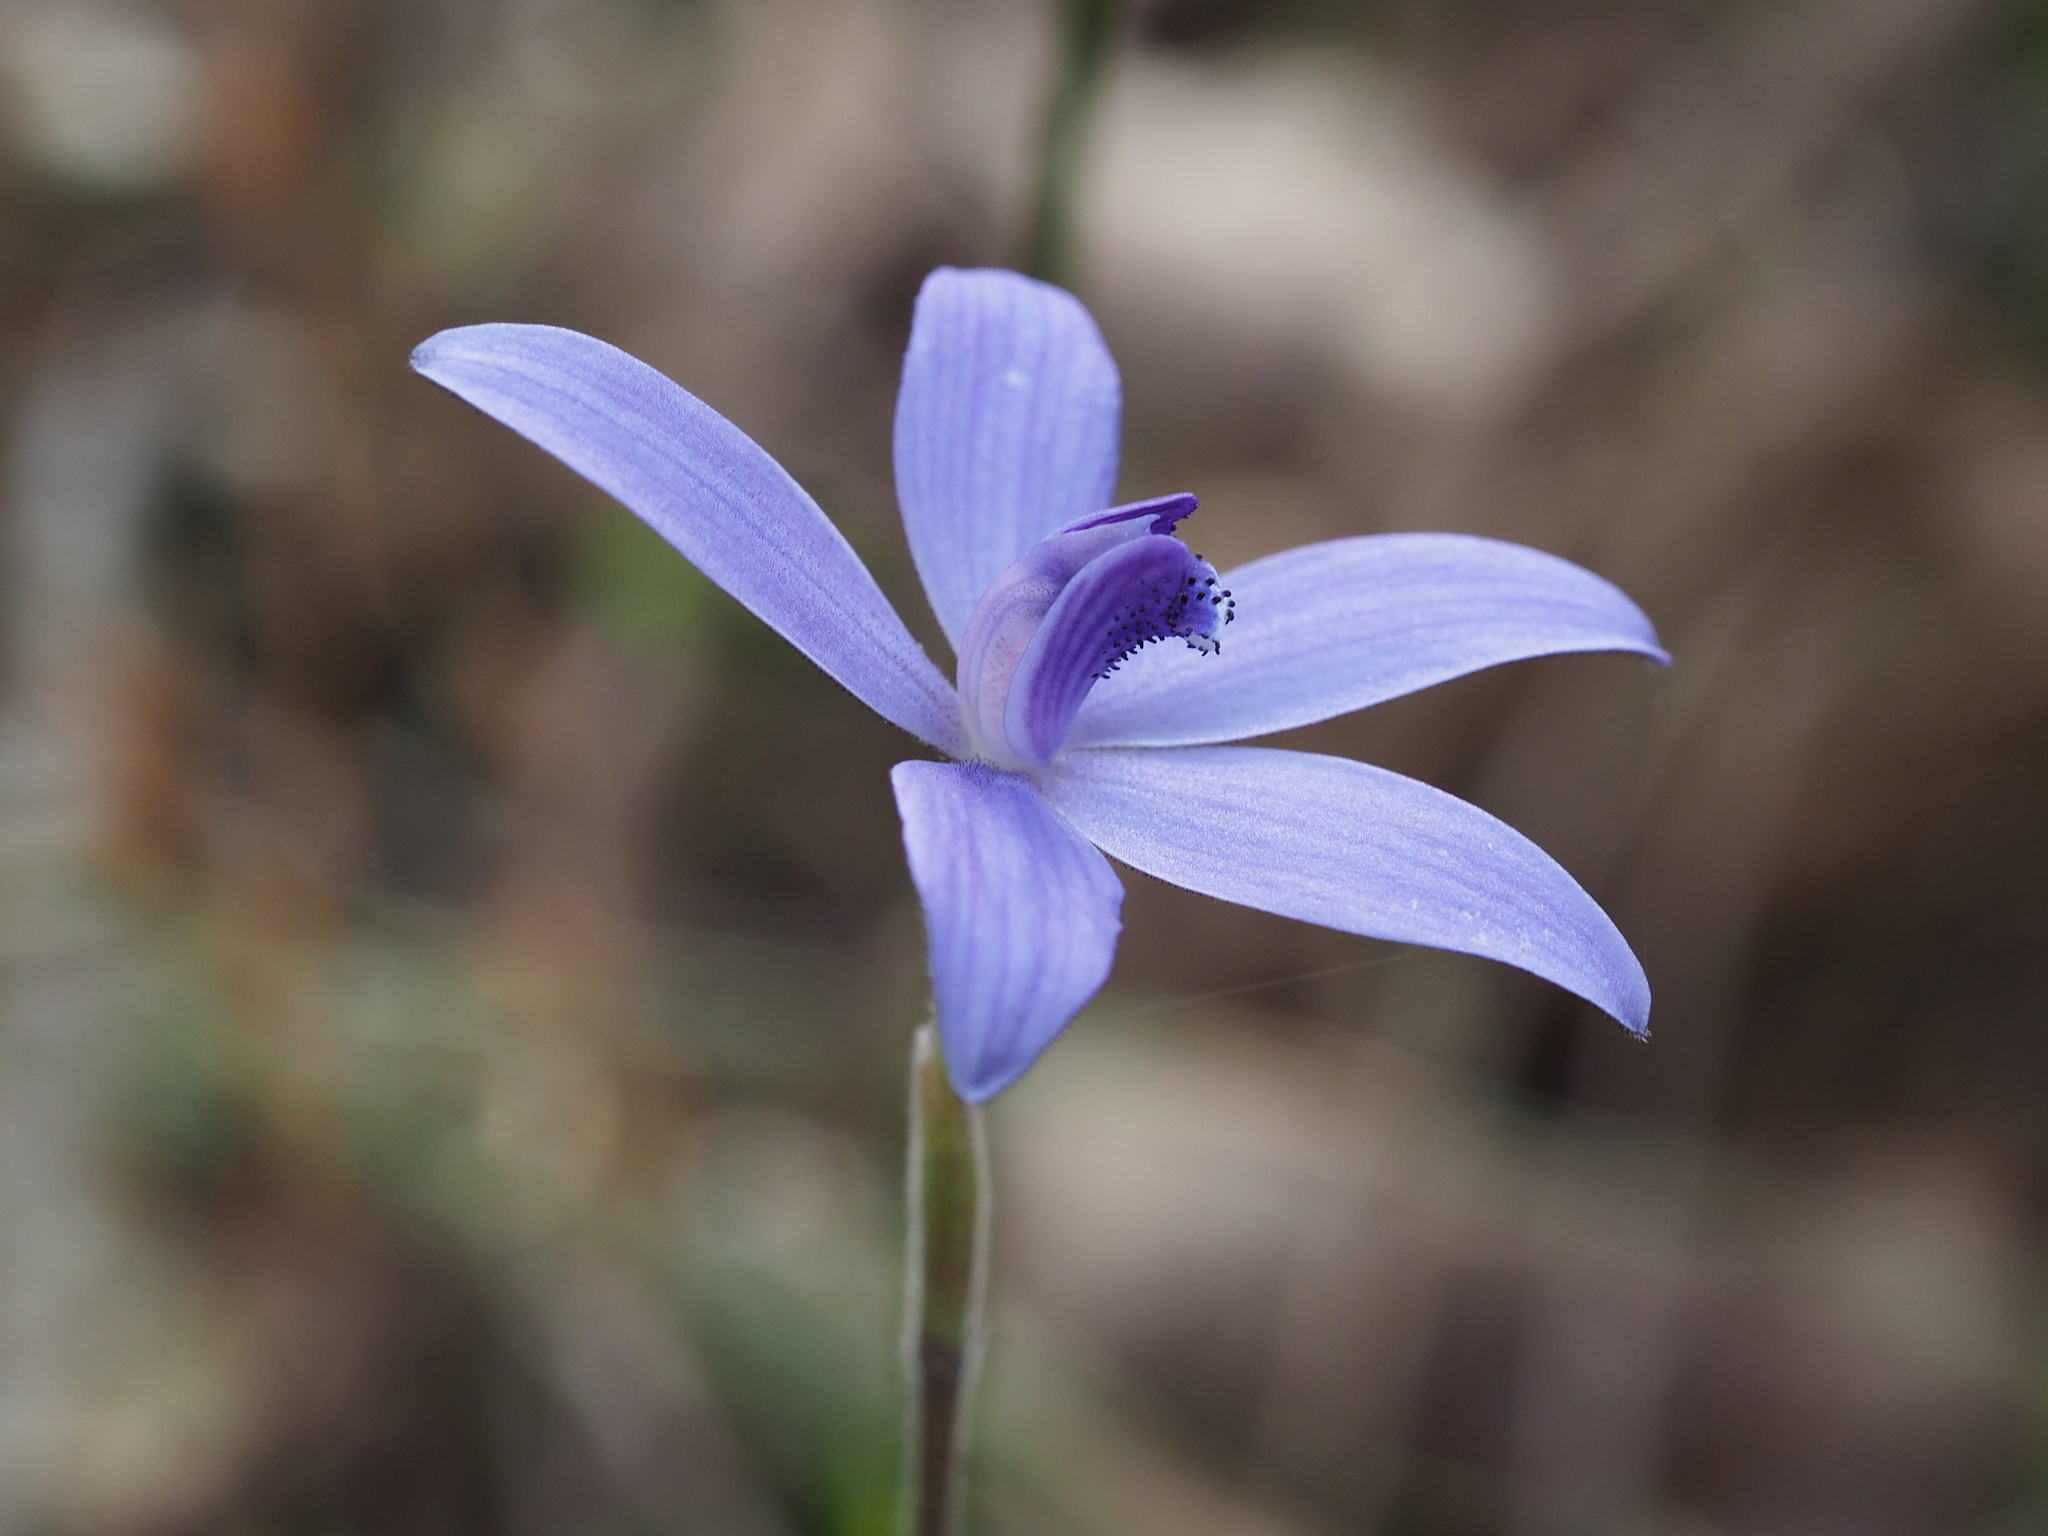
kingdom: Plantae
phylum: Tracheophyta
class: Liliopsida
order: Asparagales
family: Orchidaceae
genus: Caladenia
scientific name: Caladenia sericea
